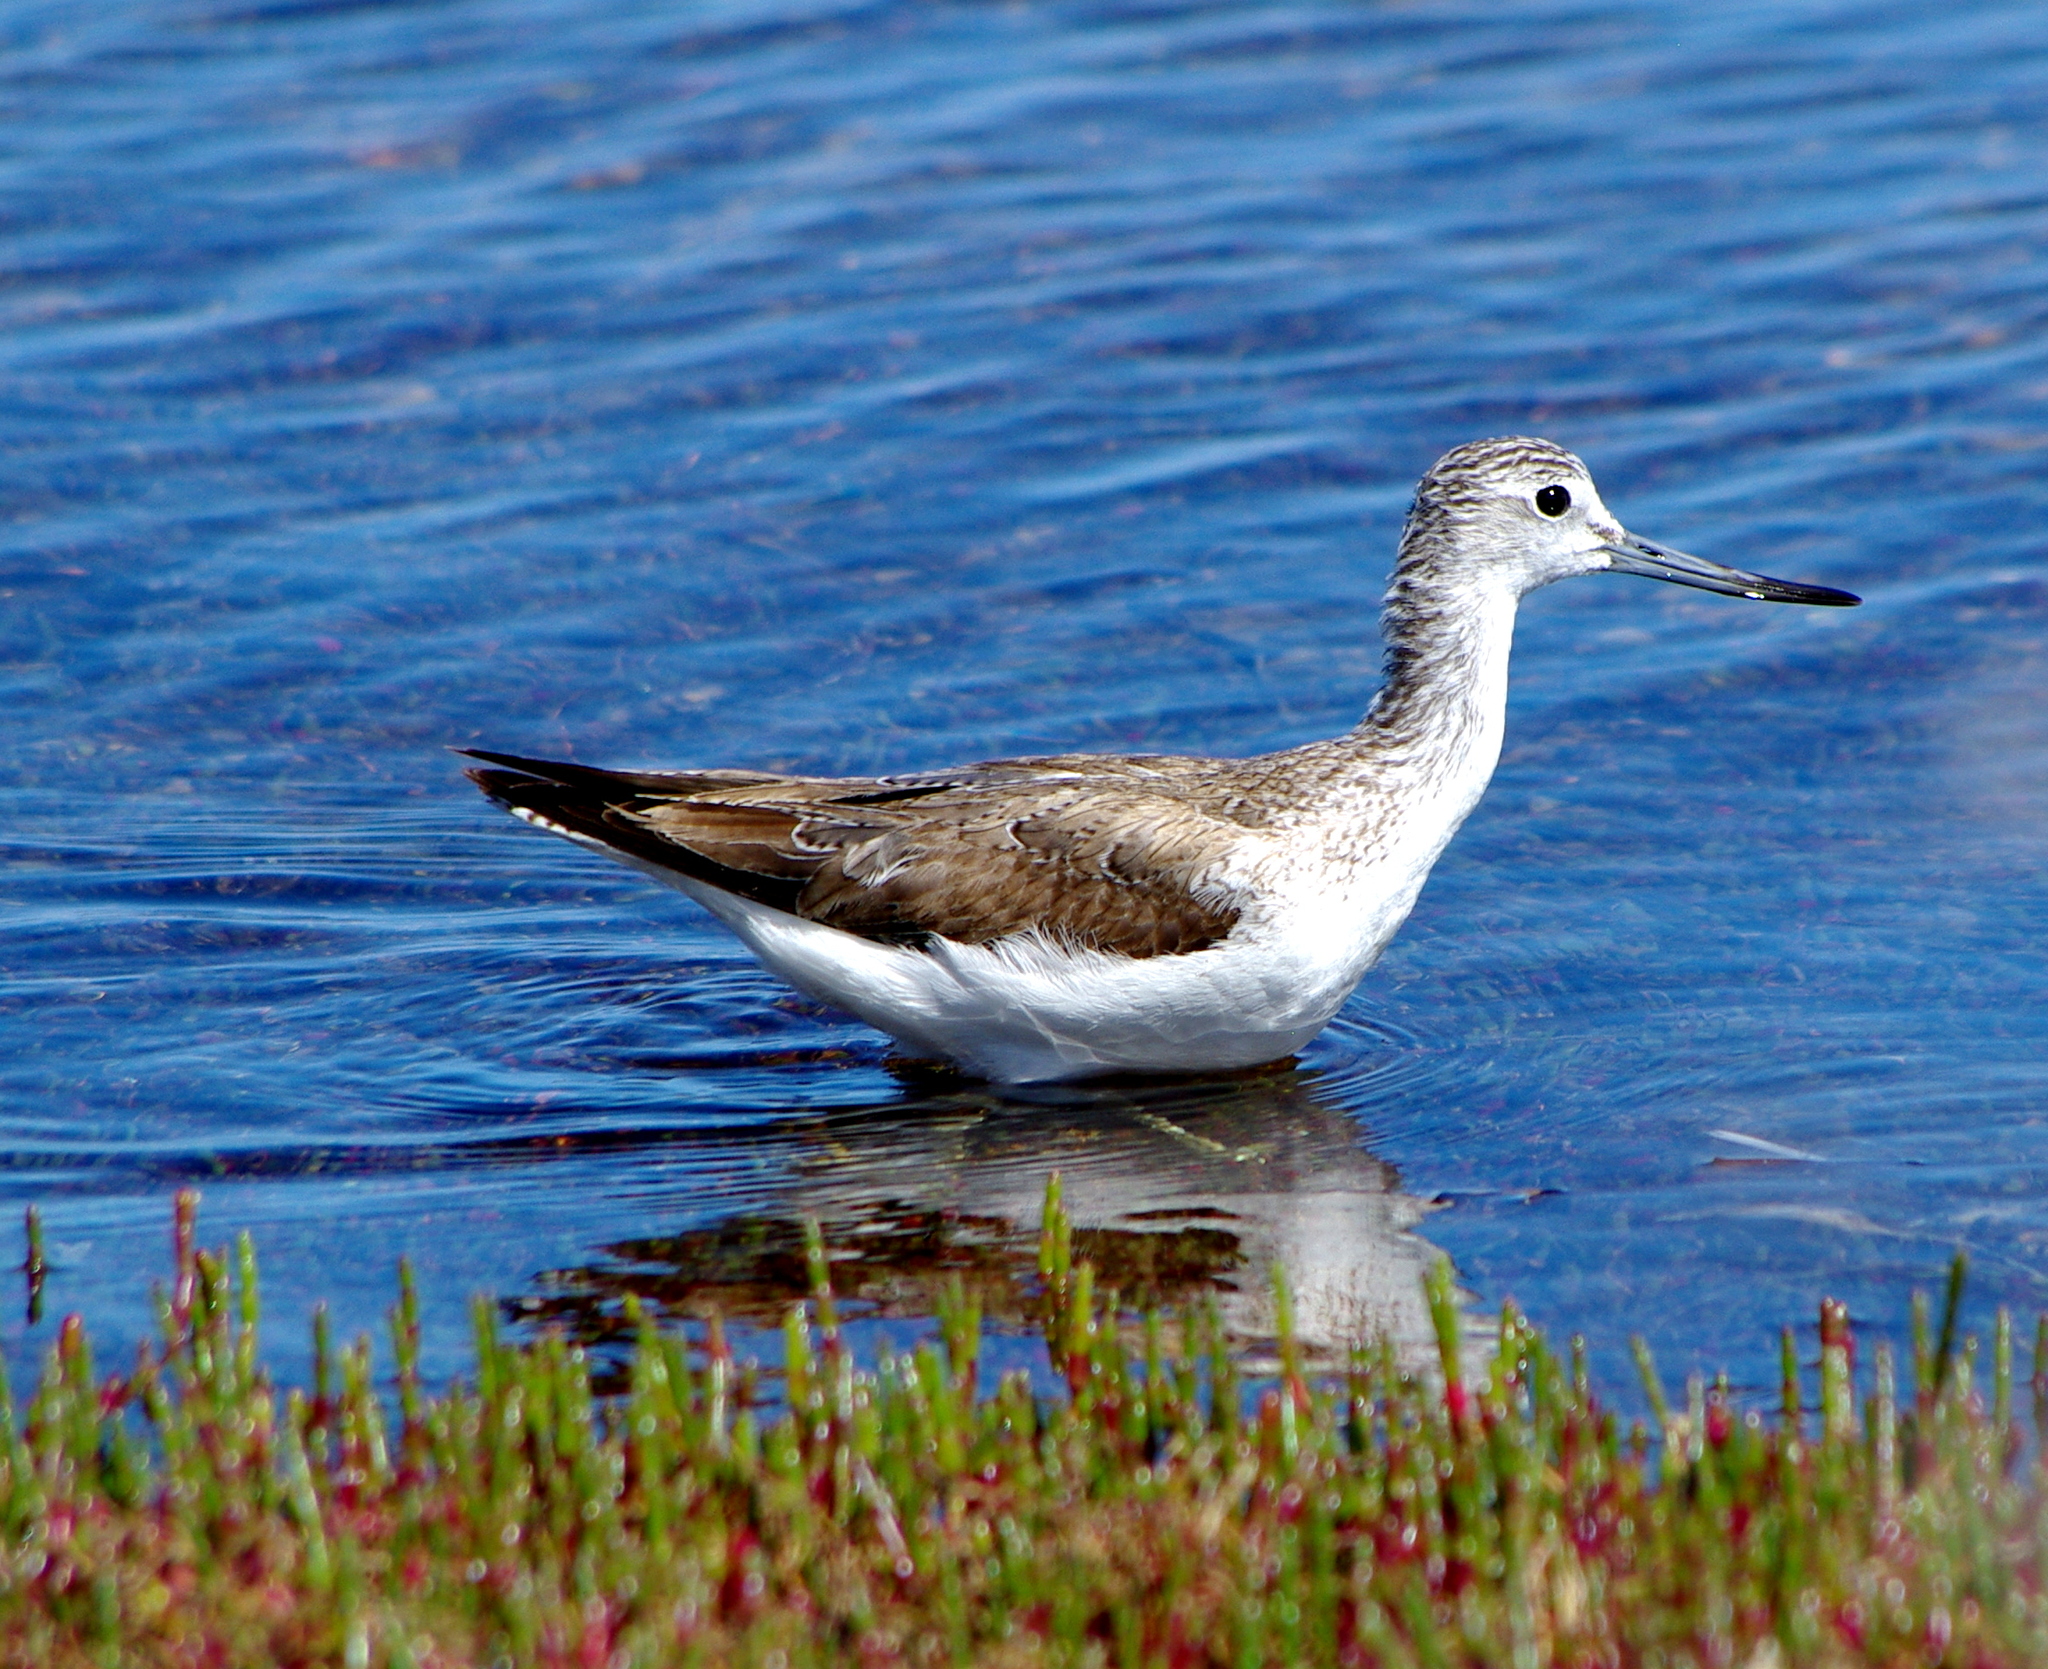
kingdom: Animalia
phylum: Chordata
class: Aves
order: Charadriiformes
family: Scolopacidae
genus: Tringa
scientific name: Tringa nebularia
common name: Common greenshank
